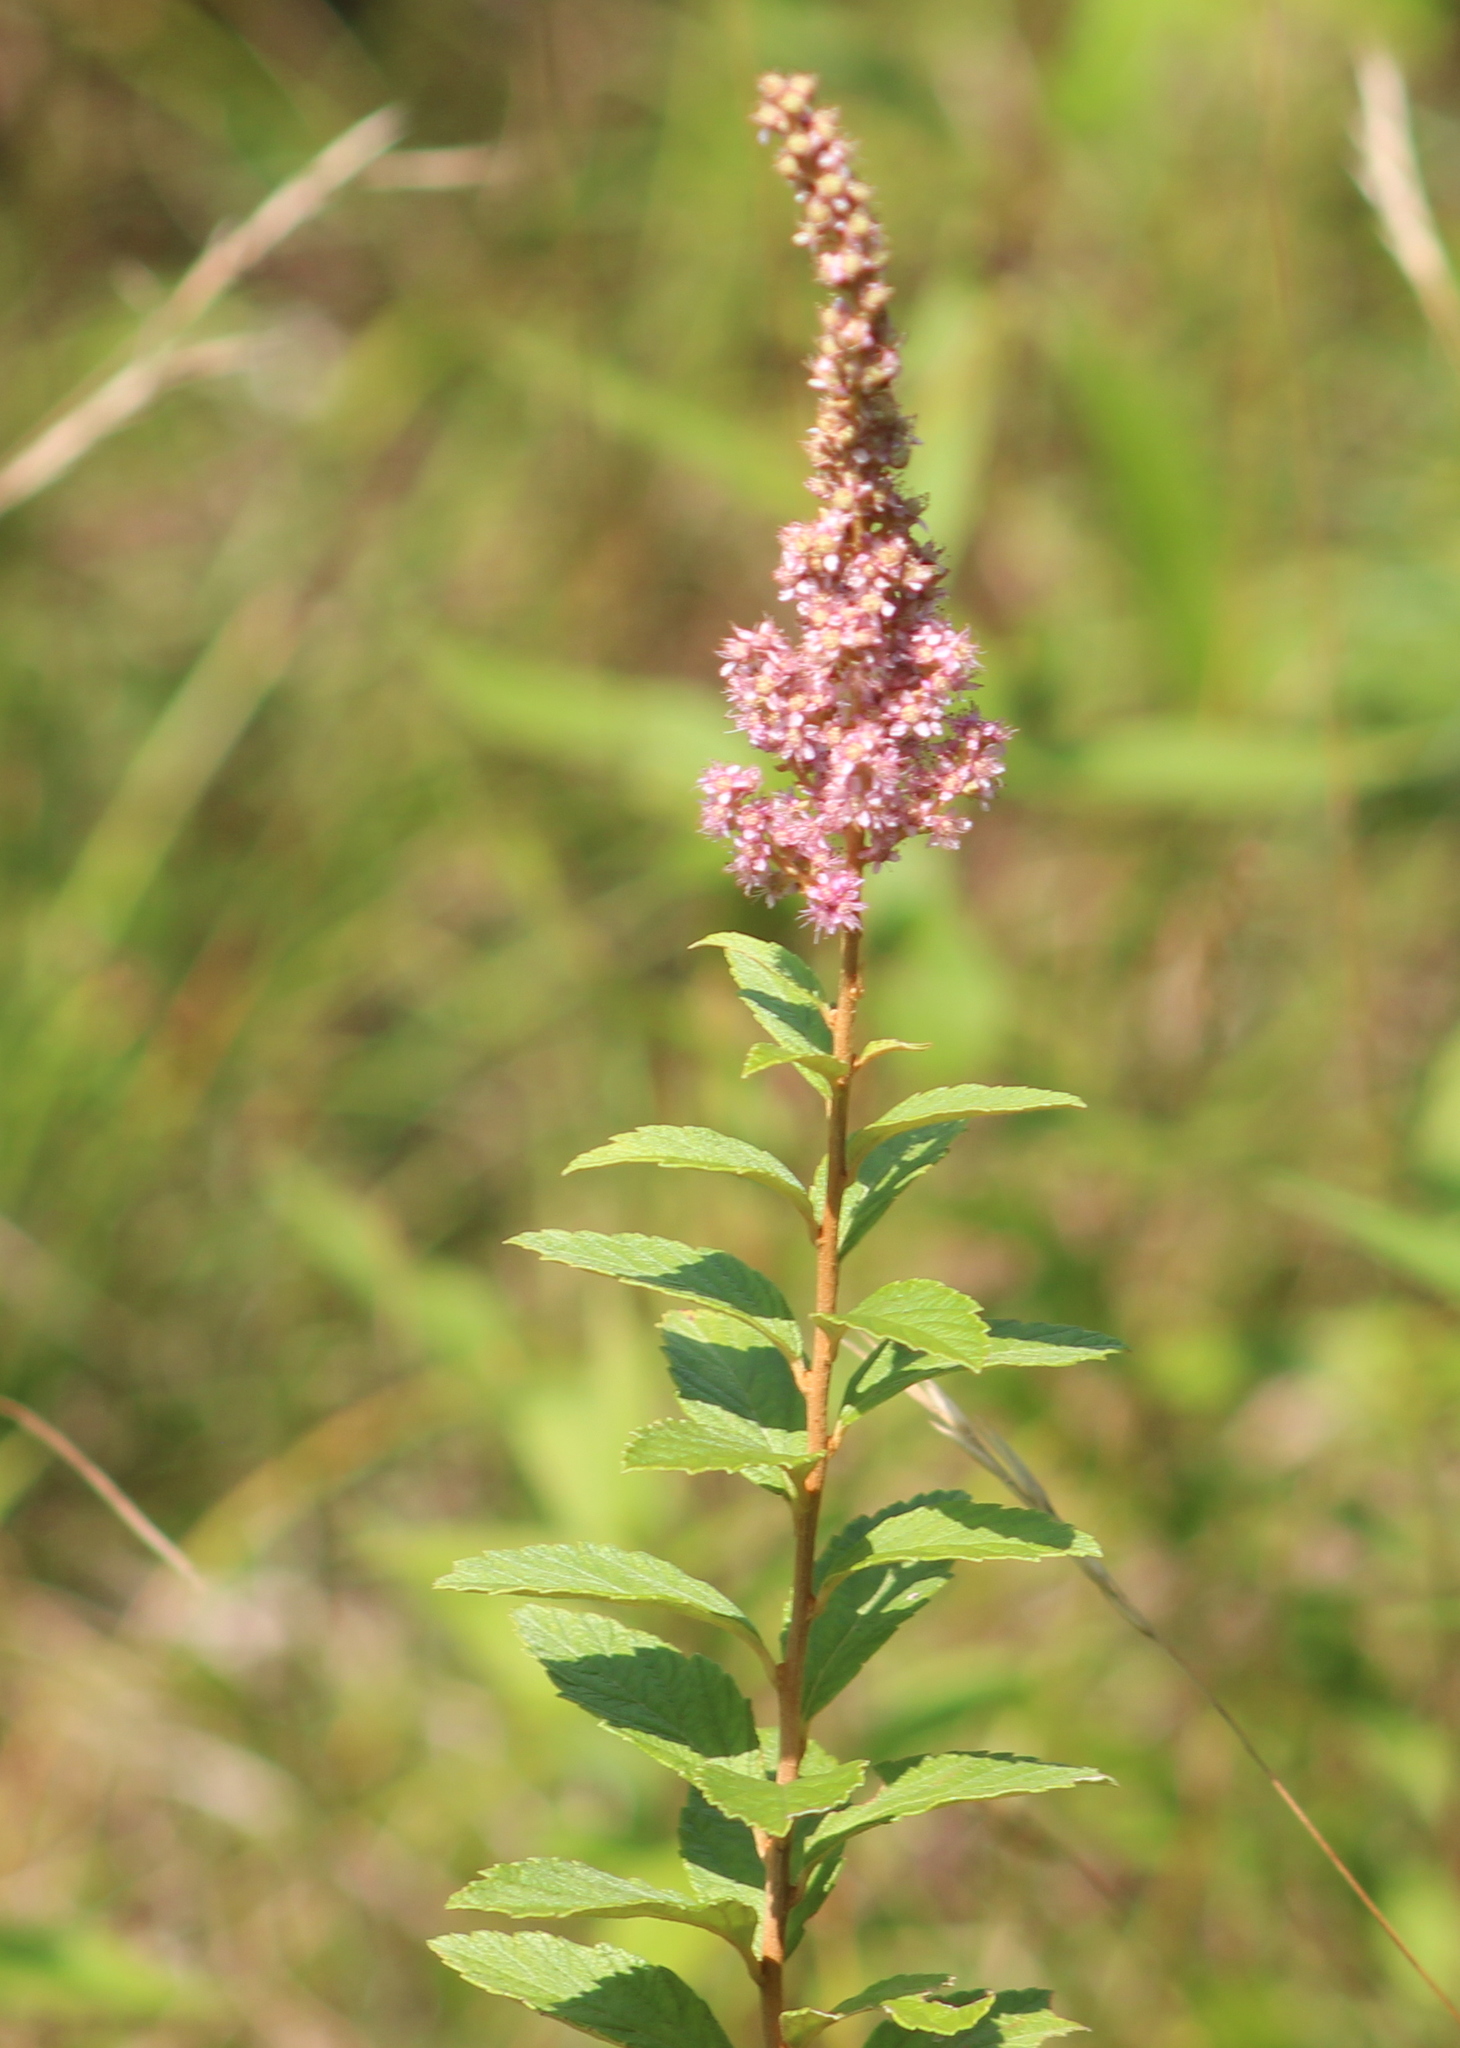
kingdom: Plantae
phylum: Tracheophyta
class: Magnoliopsida
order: Rosales
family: Rosaceae
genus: Spiraea
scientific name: Spiraea tomentosa
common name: Hardhack
